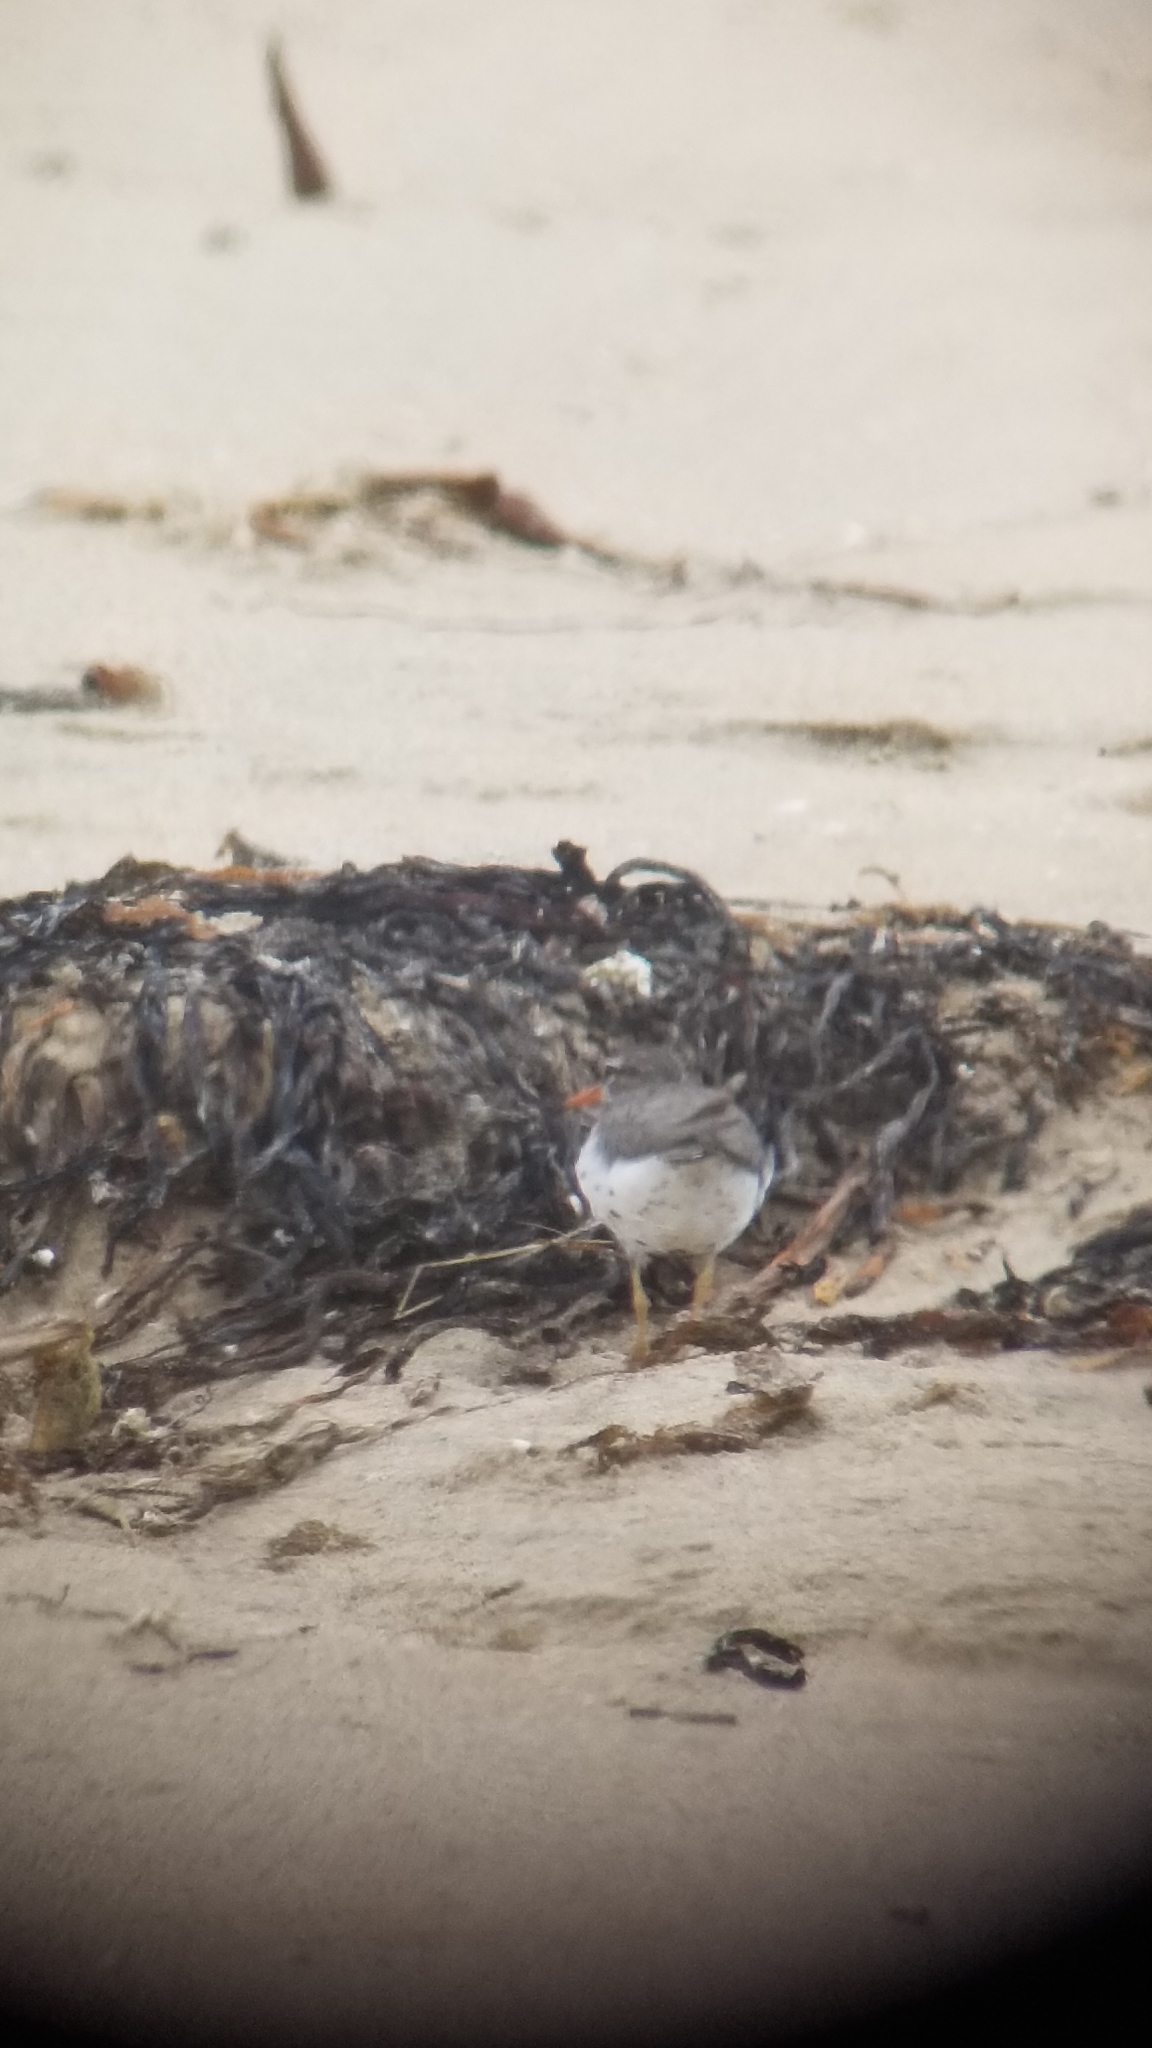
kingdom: Animalia
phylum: Chordata
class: Aves
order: Charadriiformes
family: Scolopacidae
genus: Actitis
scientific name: Actitis macularius
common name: Spotted sandpiper
